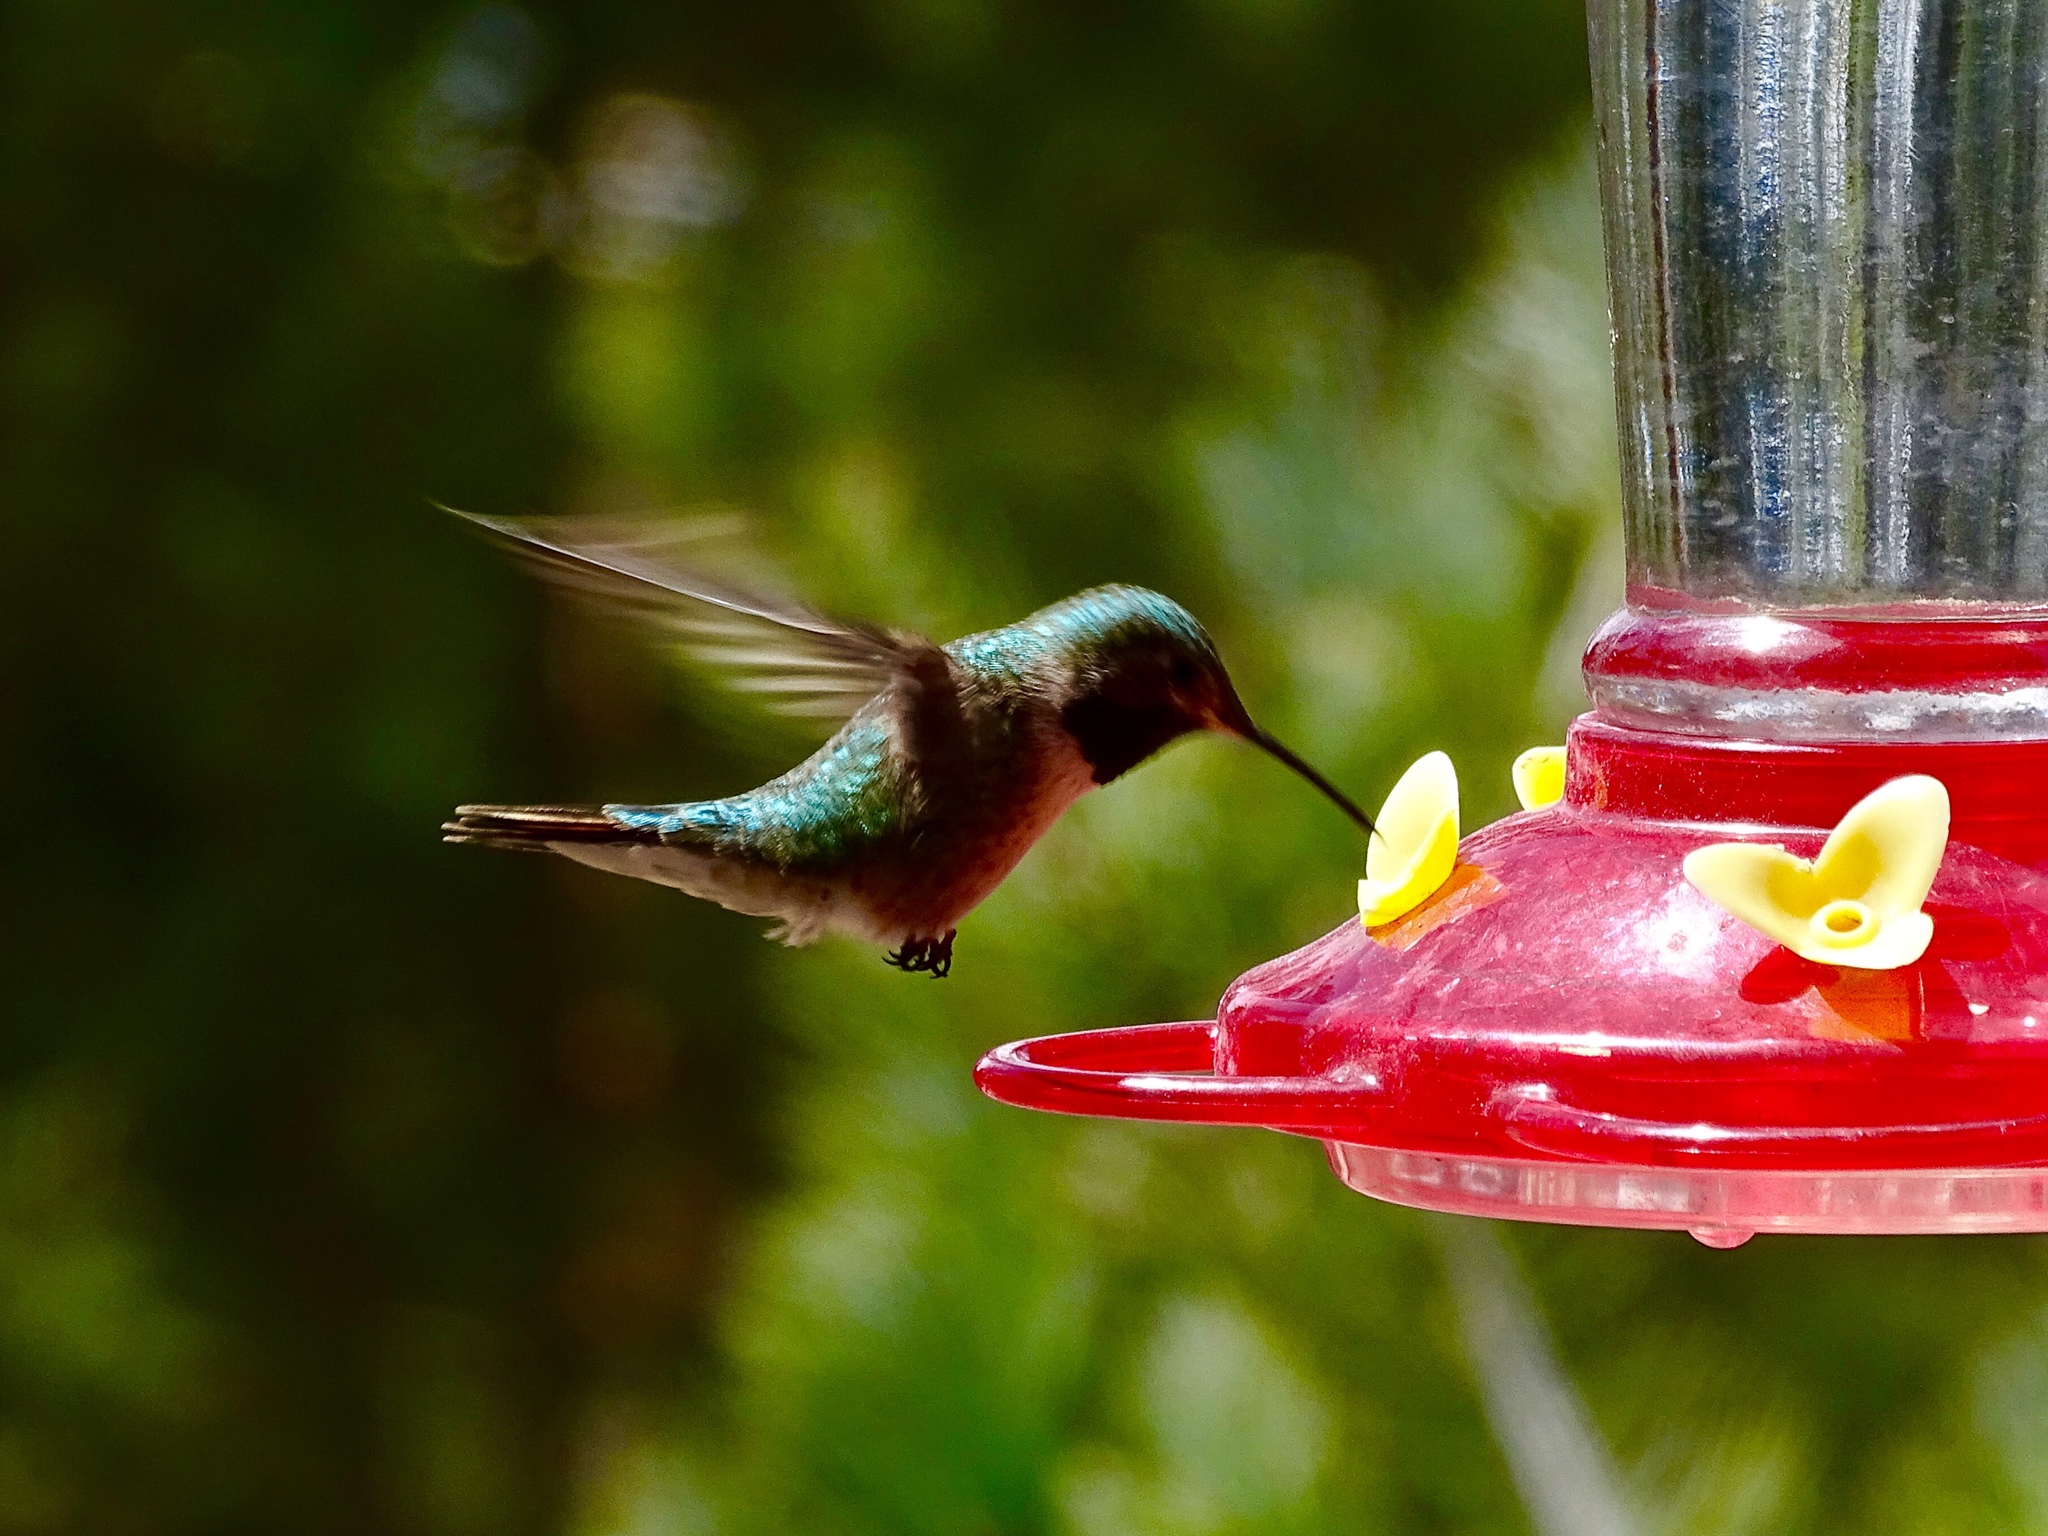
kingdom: Animalia
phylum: Chordata
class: Aves
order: Apodiformes
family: Trochilidae
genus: Selasphorus
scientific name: Selasphorus platycercus
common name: Broad-tailed hummingbird
